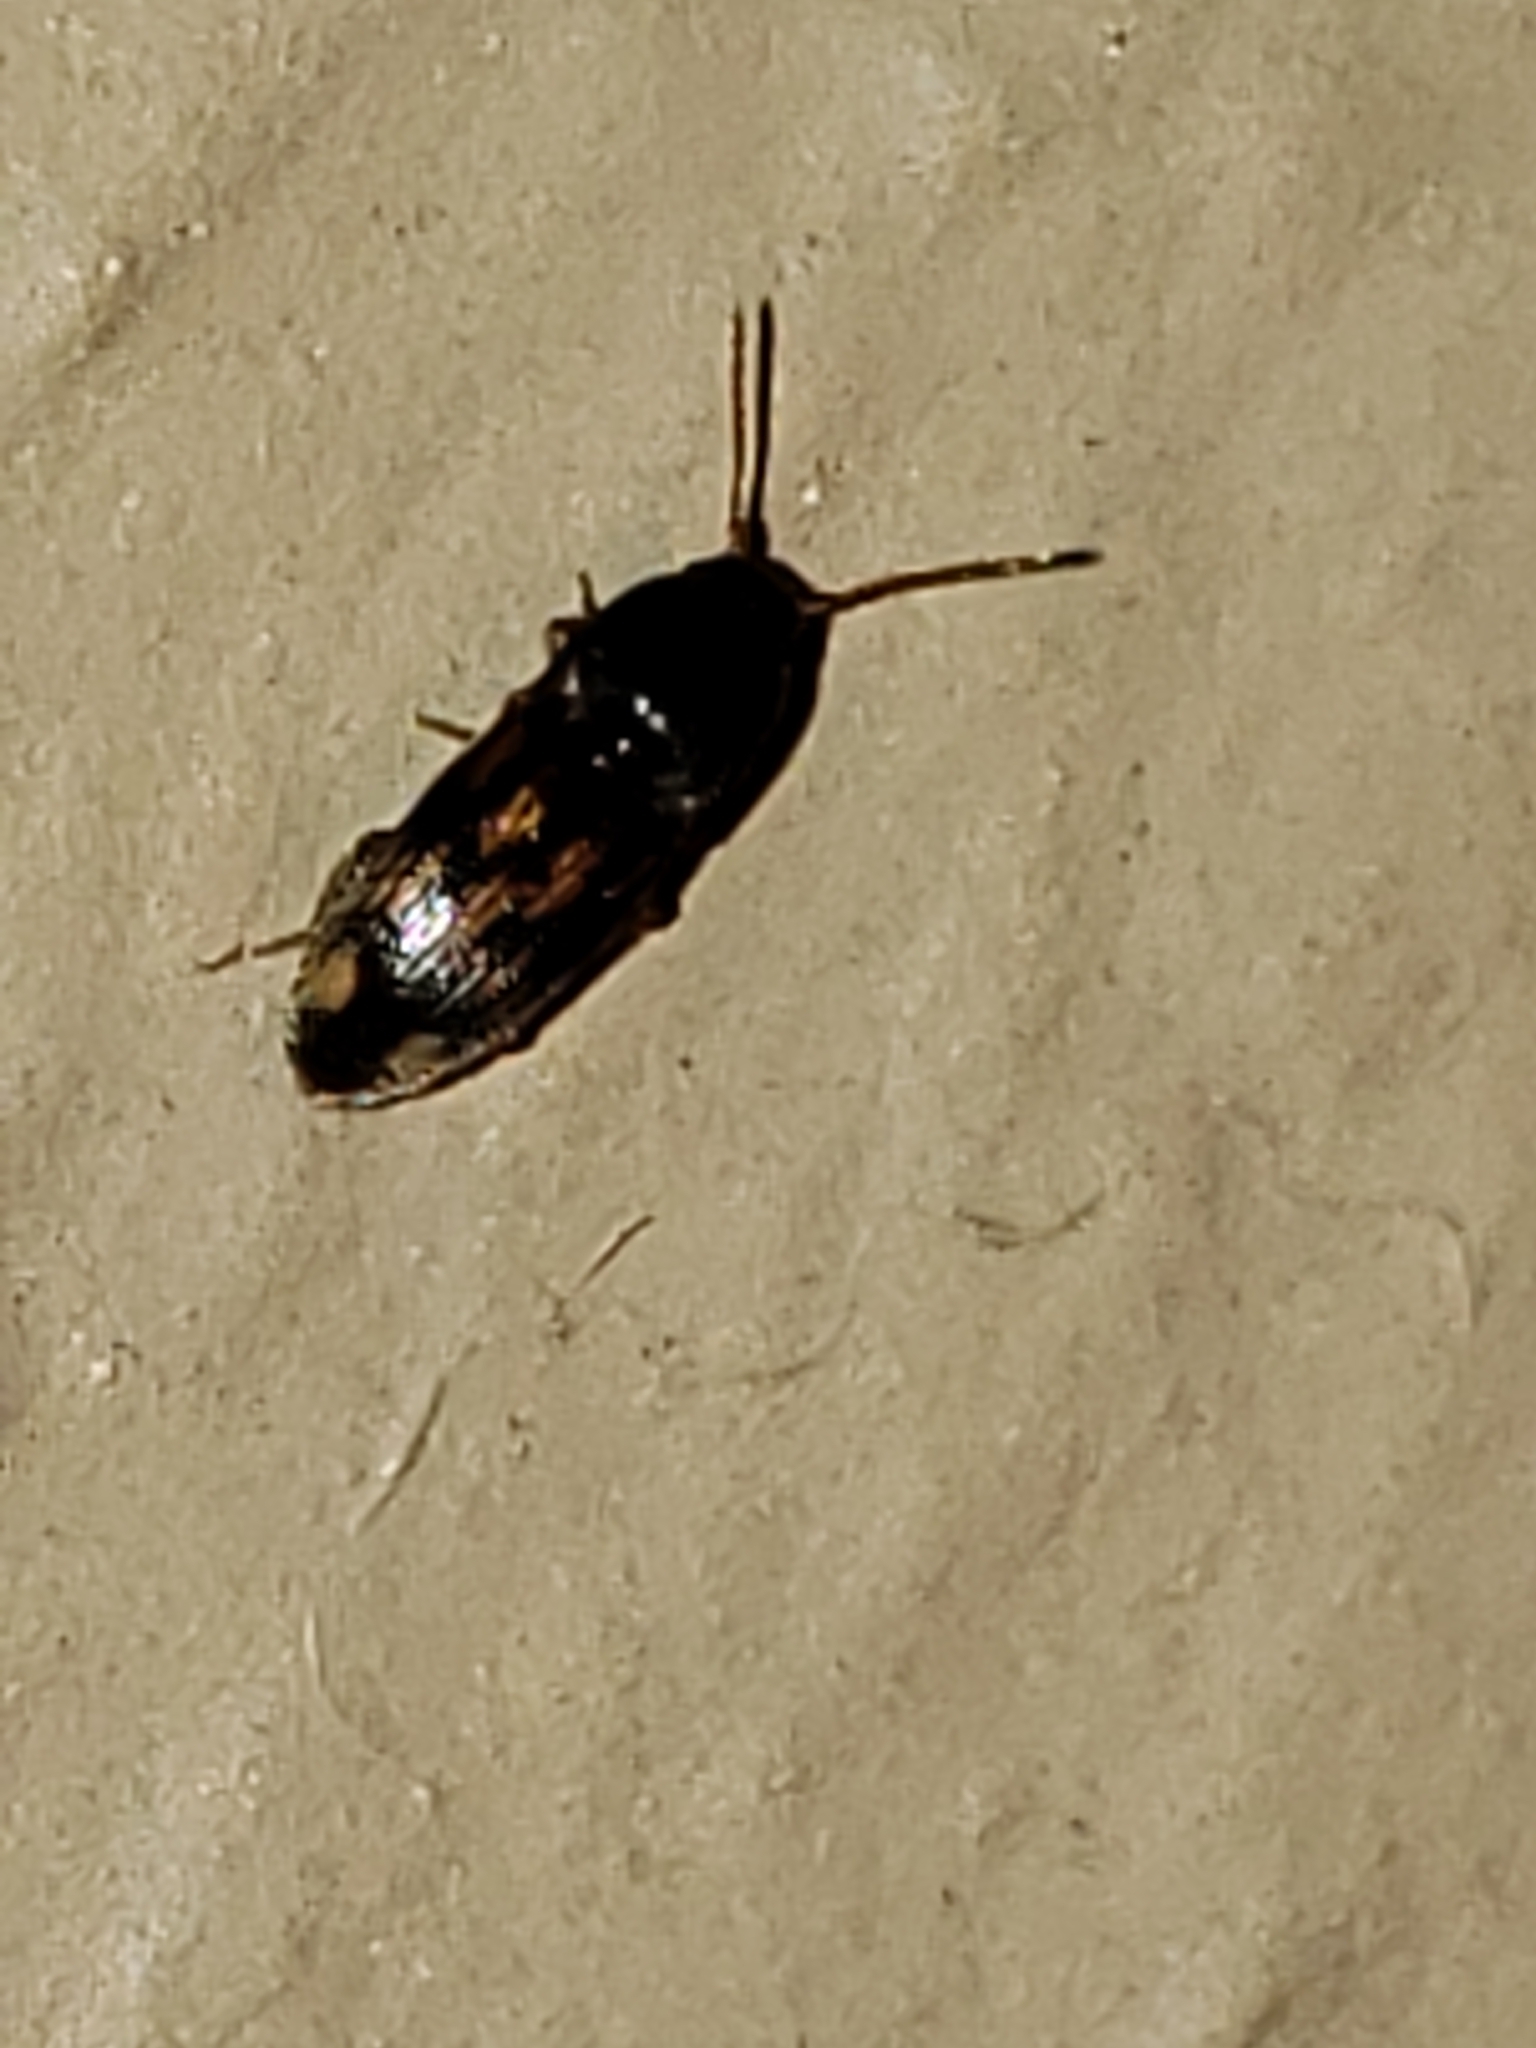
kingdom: Animalia
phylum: Arthropoda
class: Insecta
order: Coleoptera
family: Elateridae
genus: Monocrepidius
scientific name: Monocrepidius bellus
